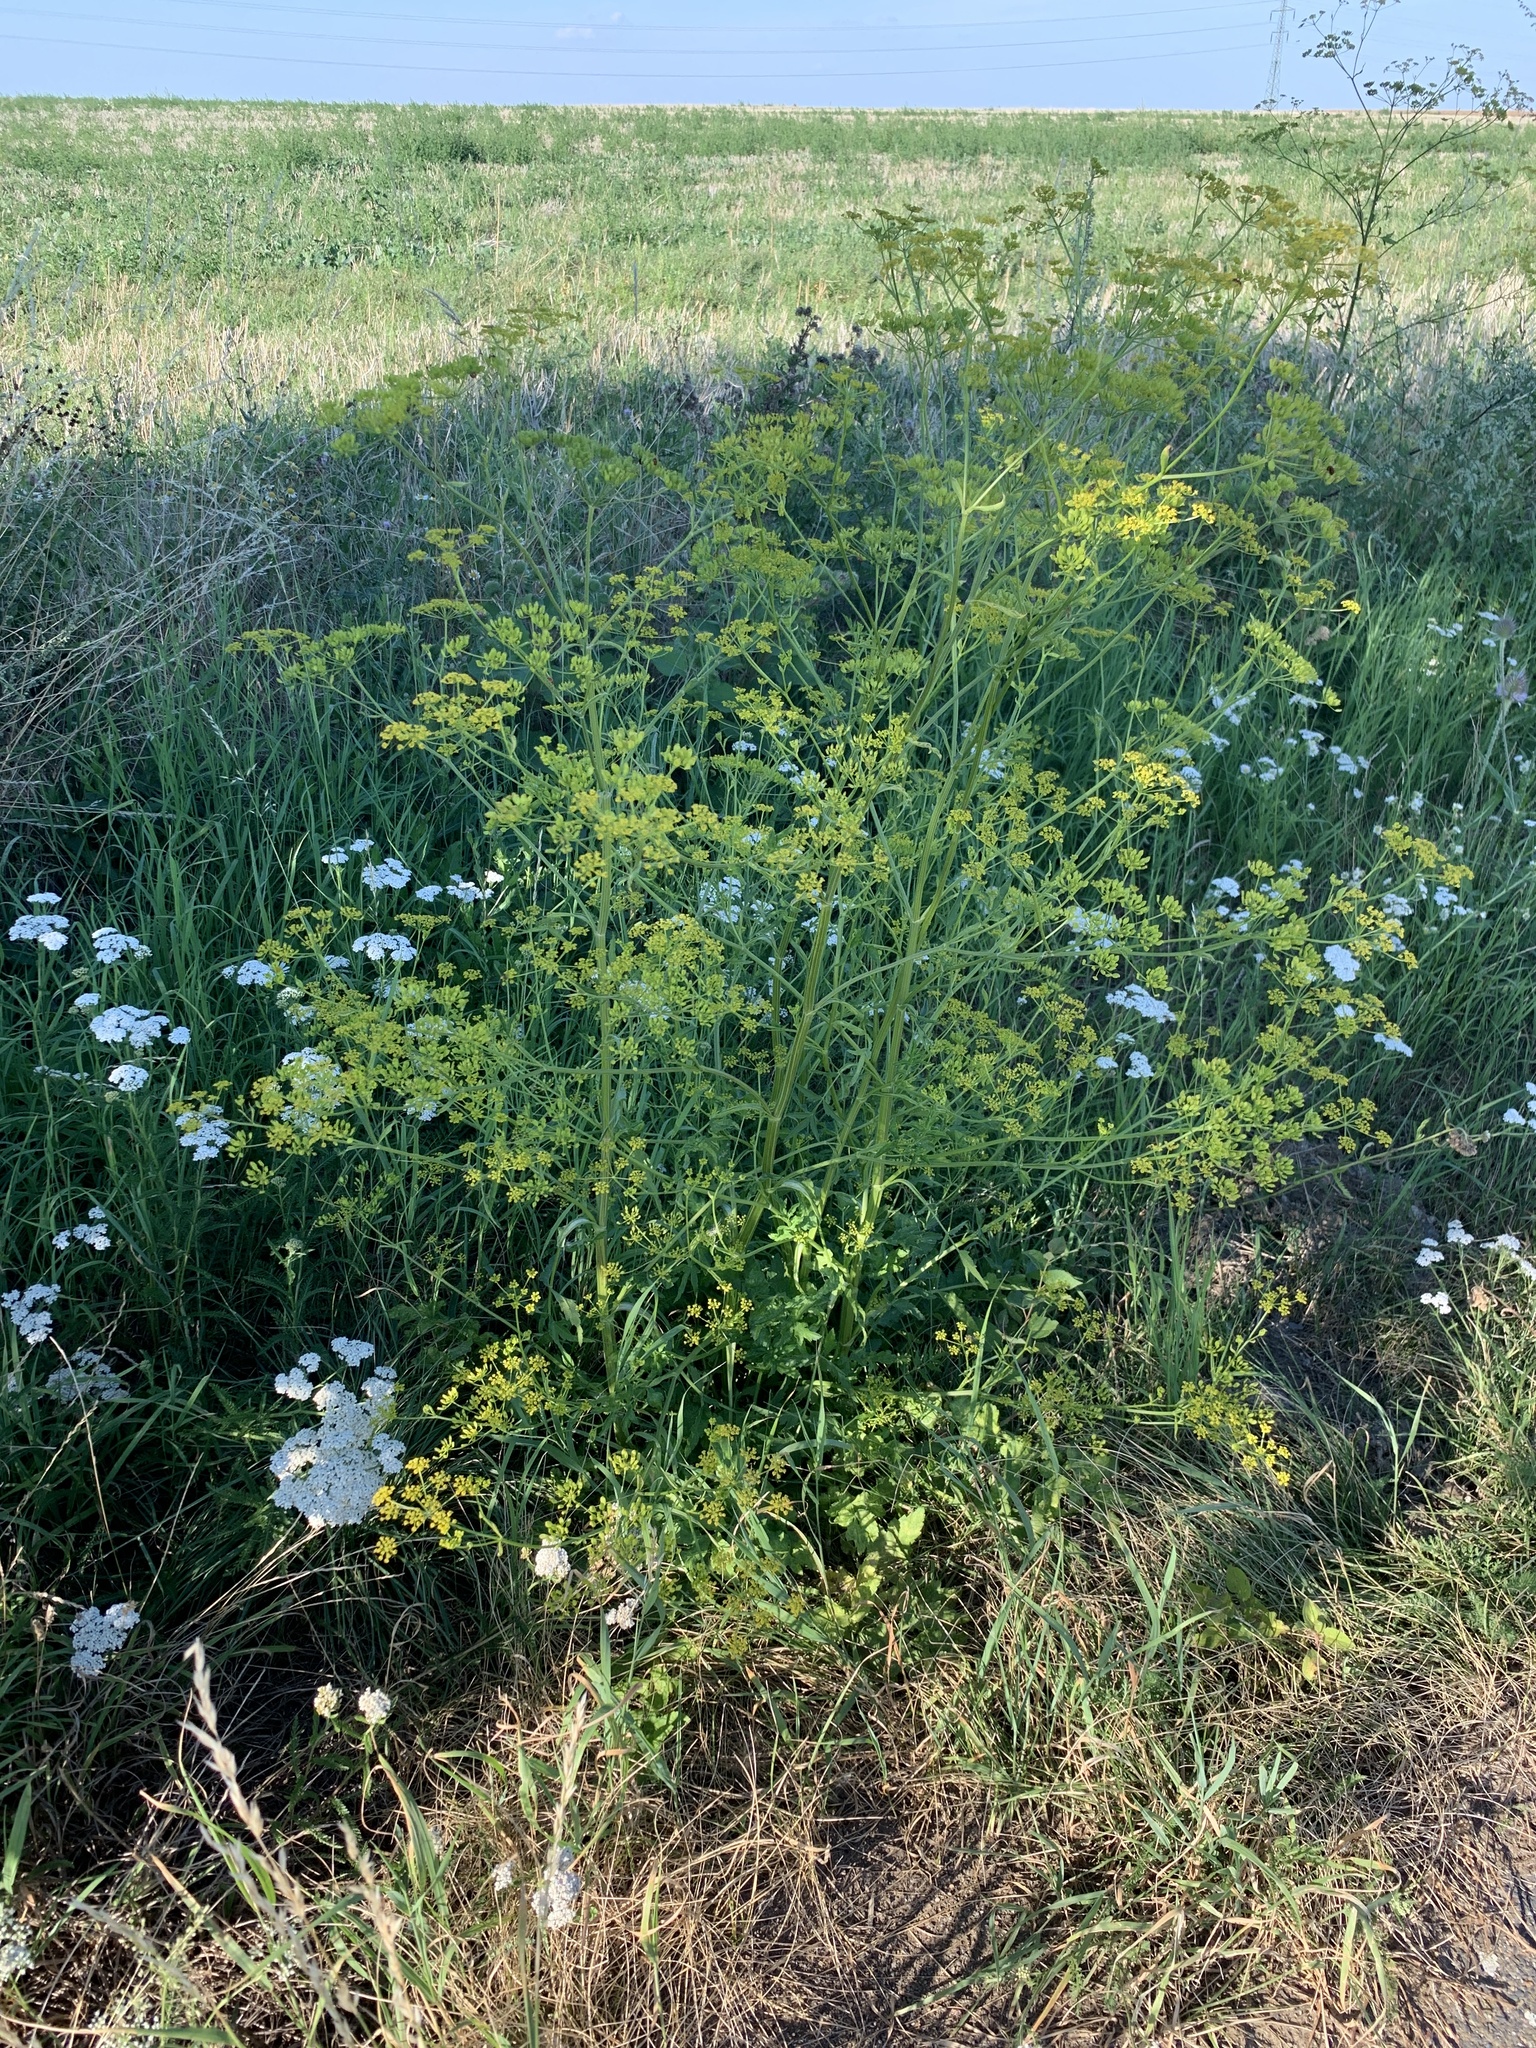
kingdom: Plantae
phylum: Tracheophyta
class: Magnoliopsida
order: Apiales
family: Apiaceae
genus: Pastinaca
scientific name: Pastinaca sativa
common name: Wild parsnip
